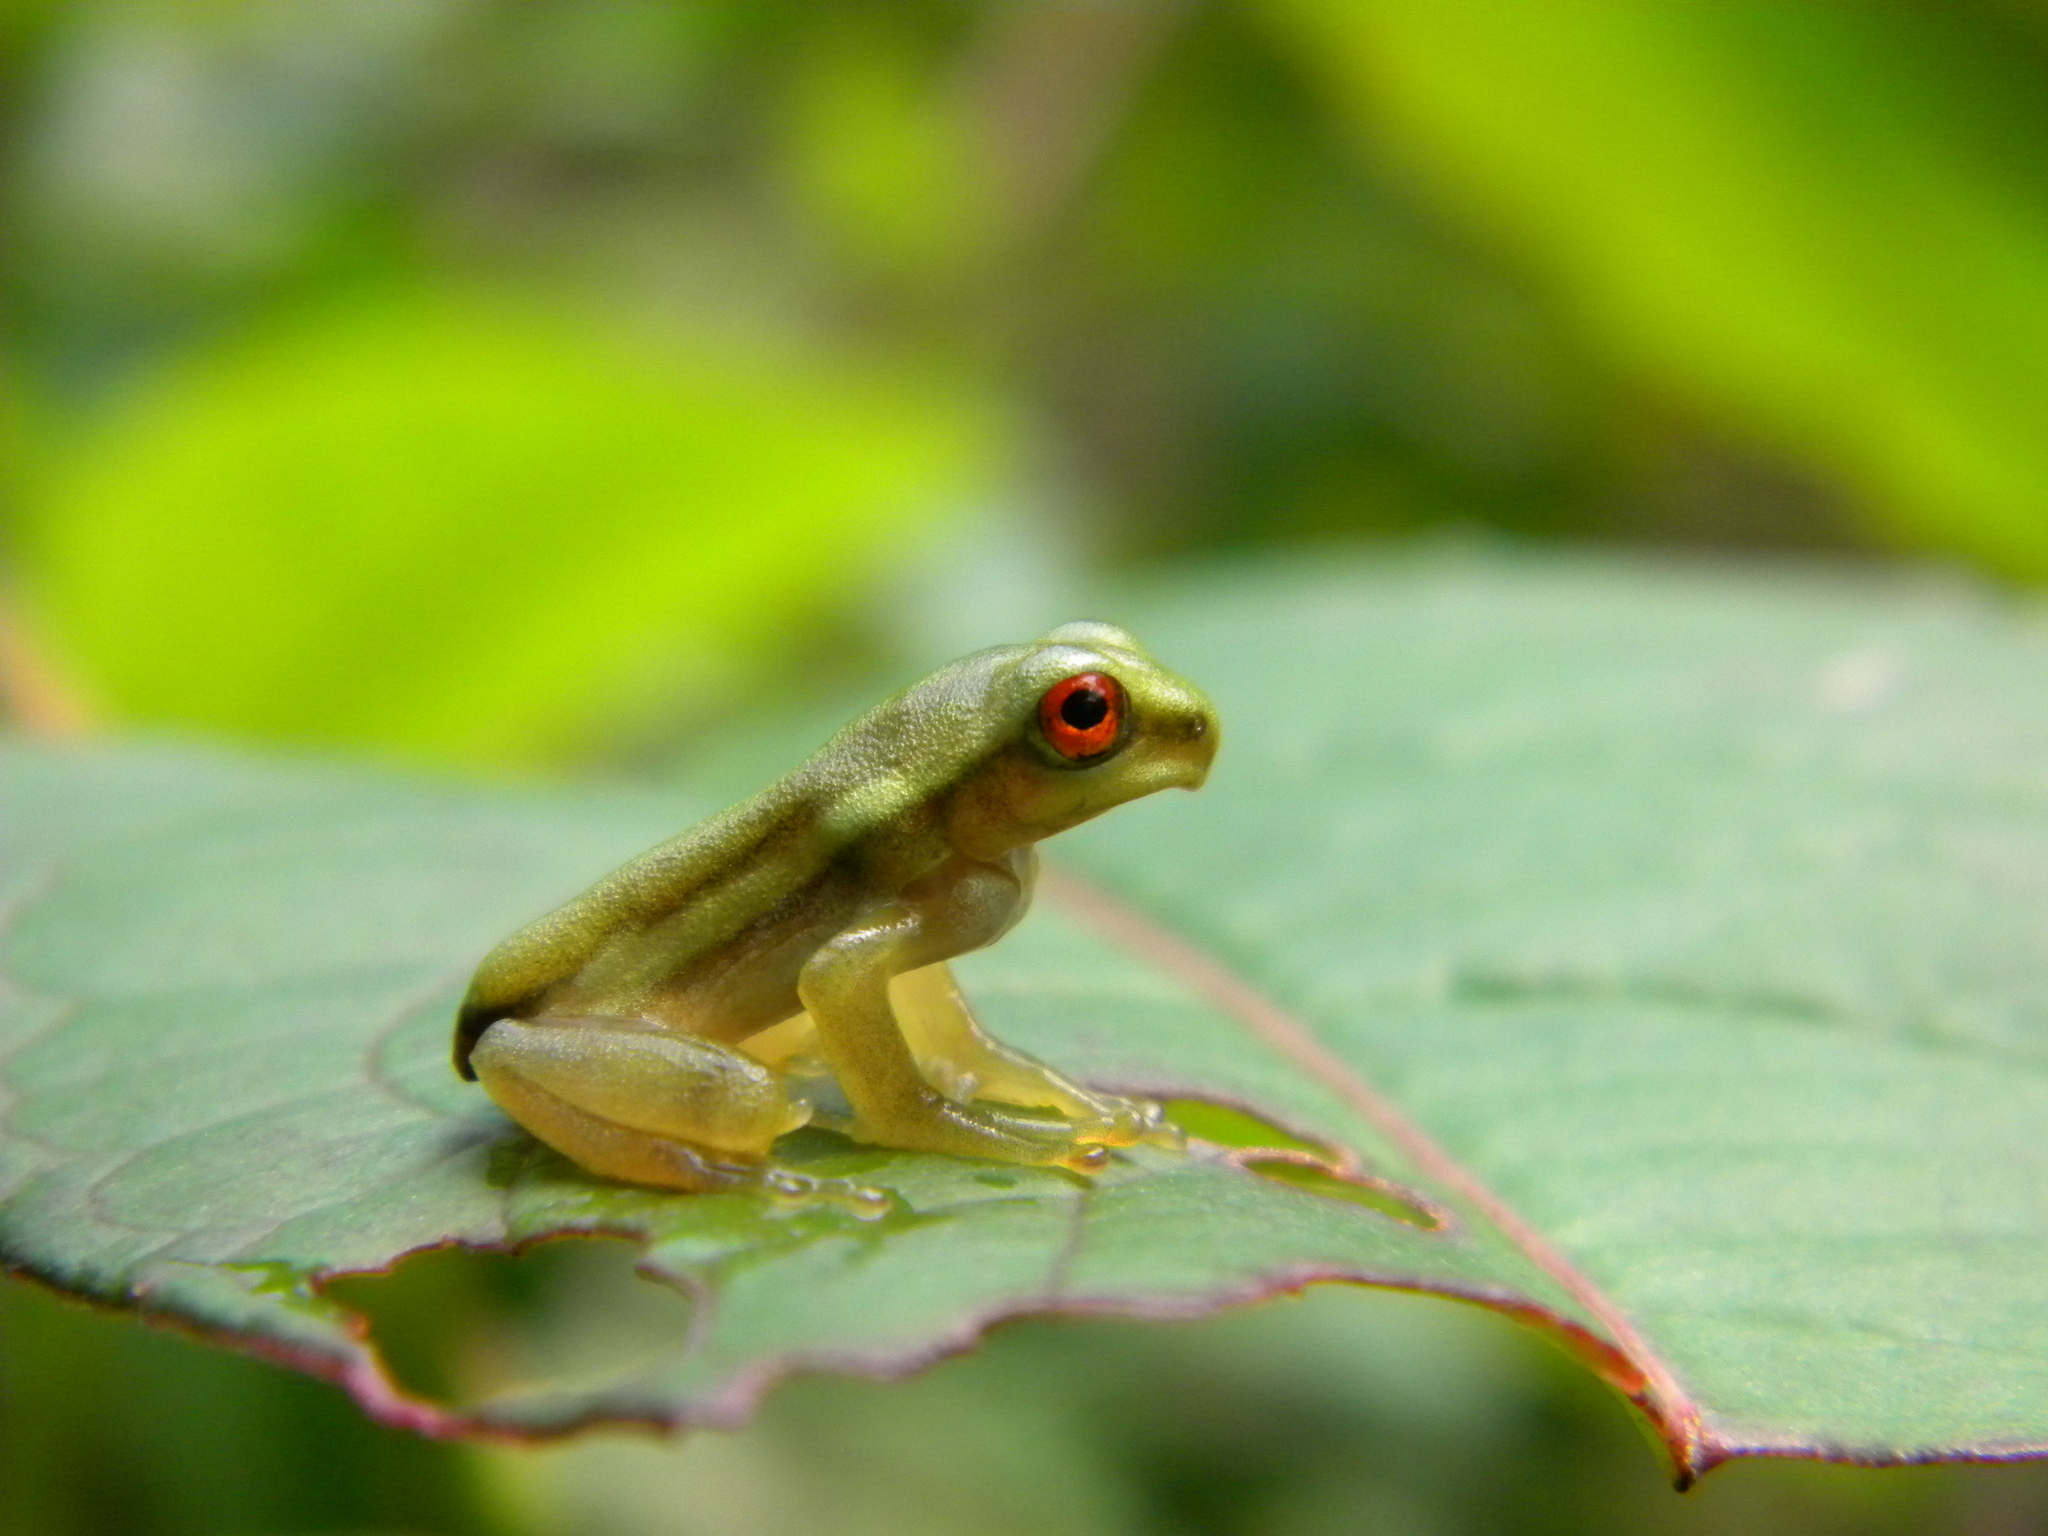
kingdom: Animalia
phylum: Chordata
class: Amphibia
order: Anura
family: Rhacophoridae
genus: Beddomixalus
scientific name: Beddomixalus bijui
